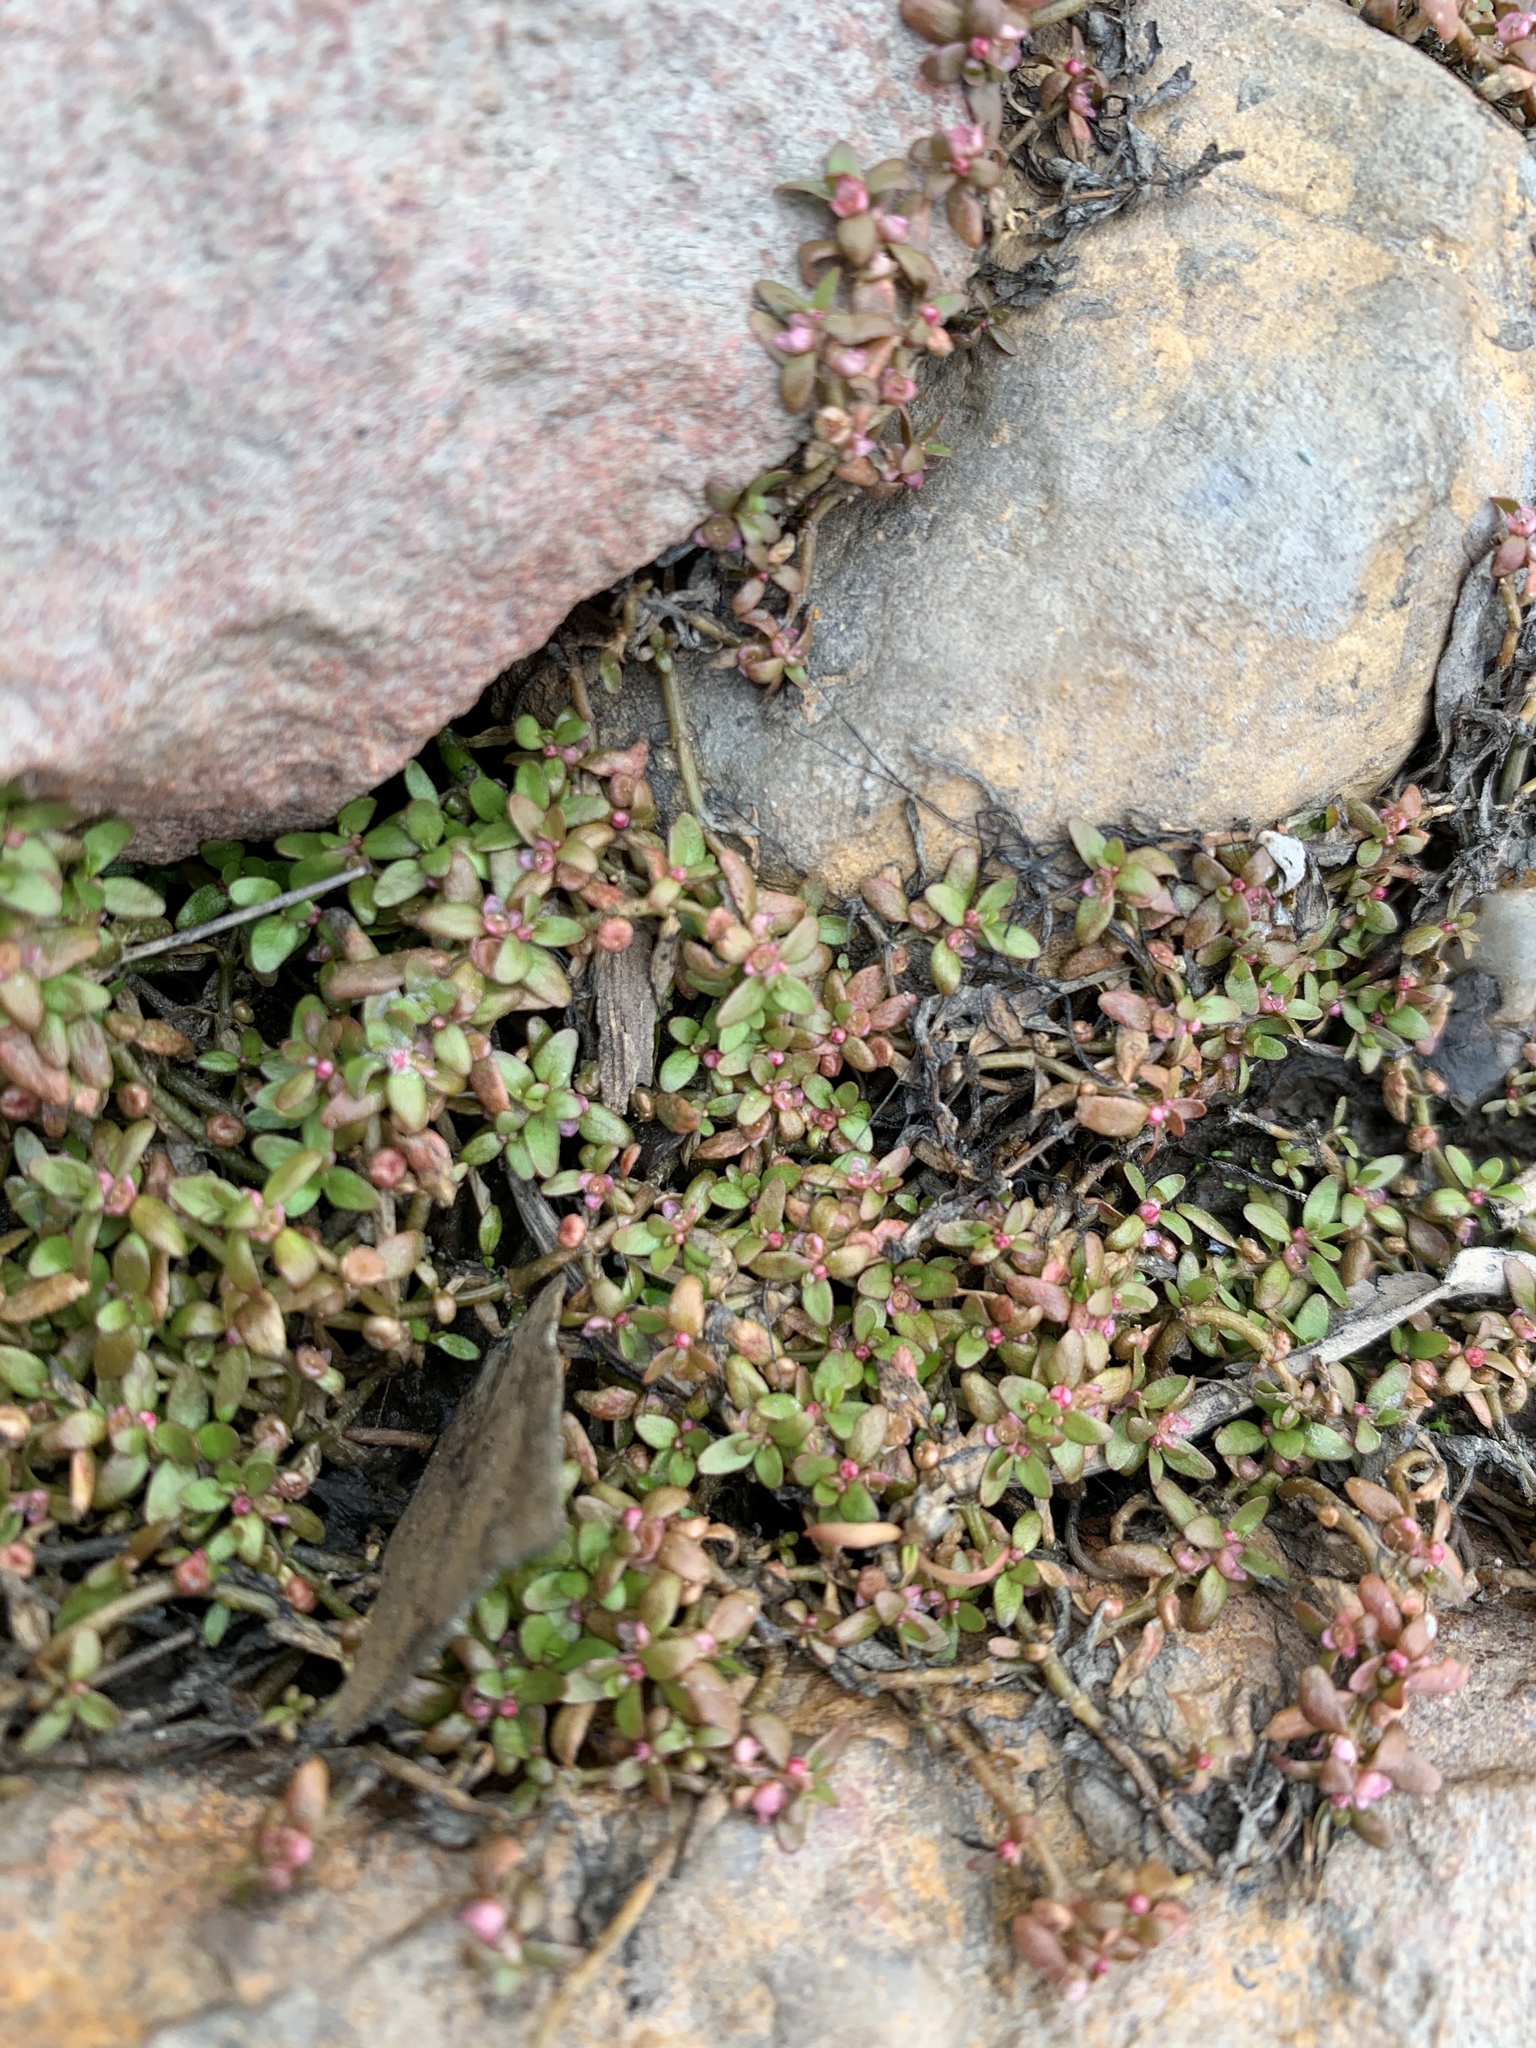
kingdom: Plantae
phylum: Tracheophyta
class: Magnoliopsida
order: Malpighiales
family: Elatinaceae
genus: Elatine
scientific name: Elatine gratioloides
